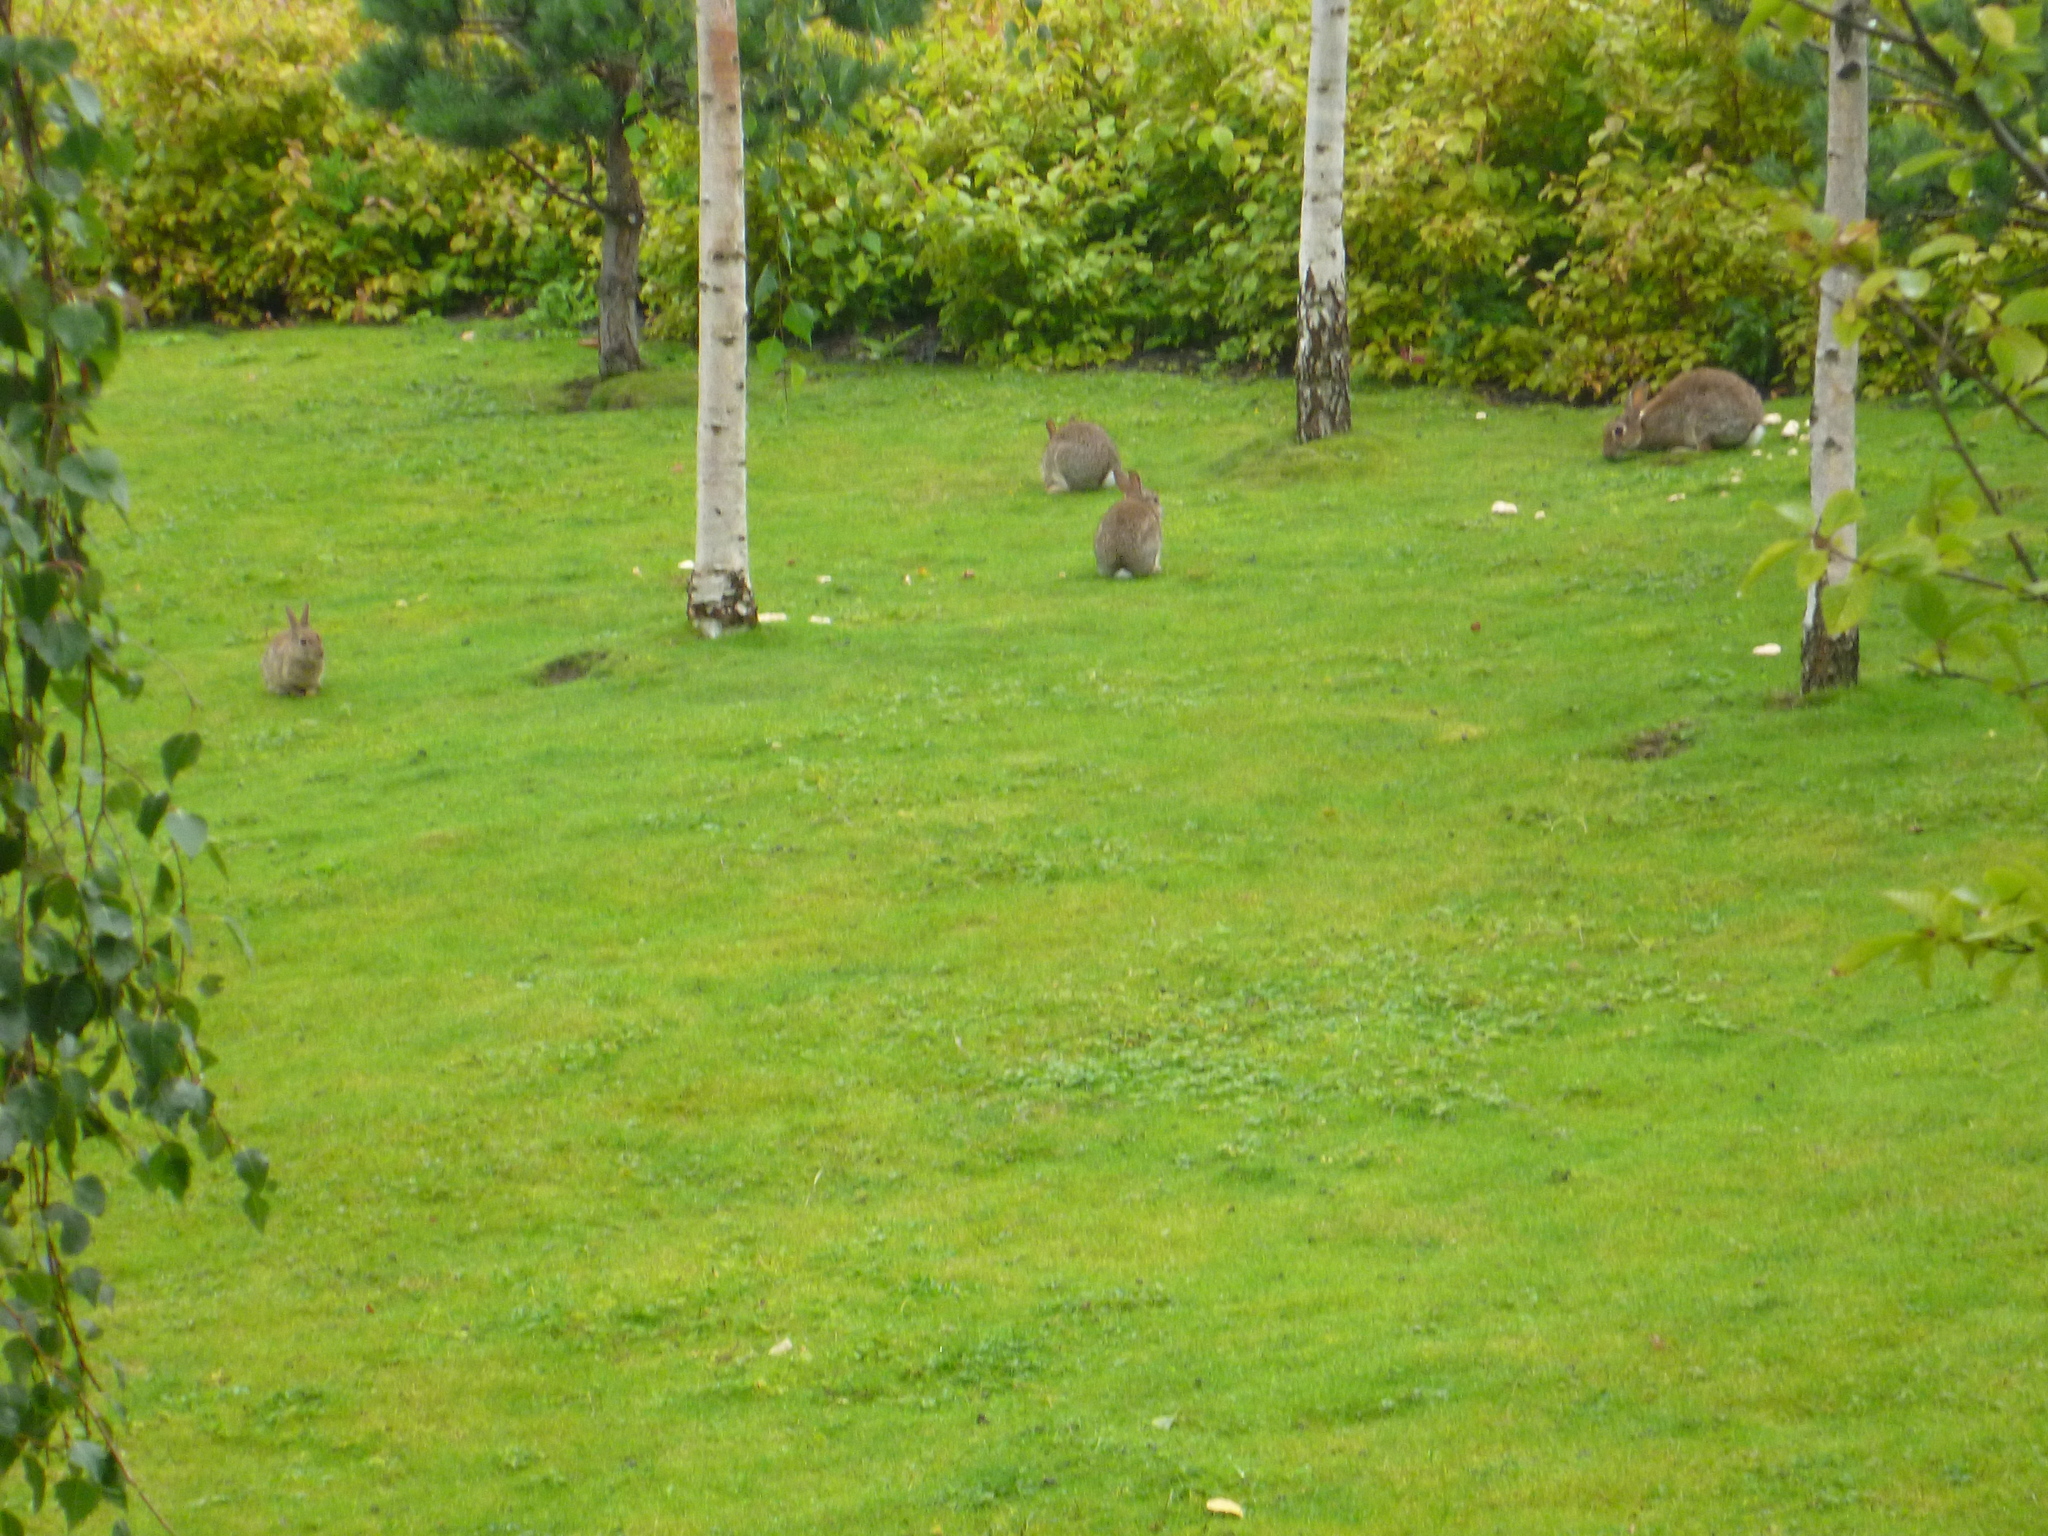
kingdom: Animalia
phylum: Chordata
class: Mammalia
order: Lagomorpha
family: Leporidae
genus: Oryctolagus
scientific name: Oryctolagus cuniculus
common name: European rabbit
